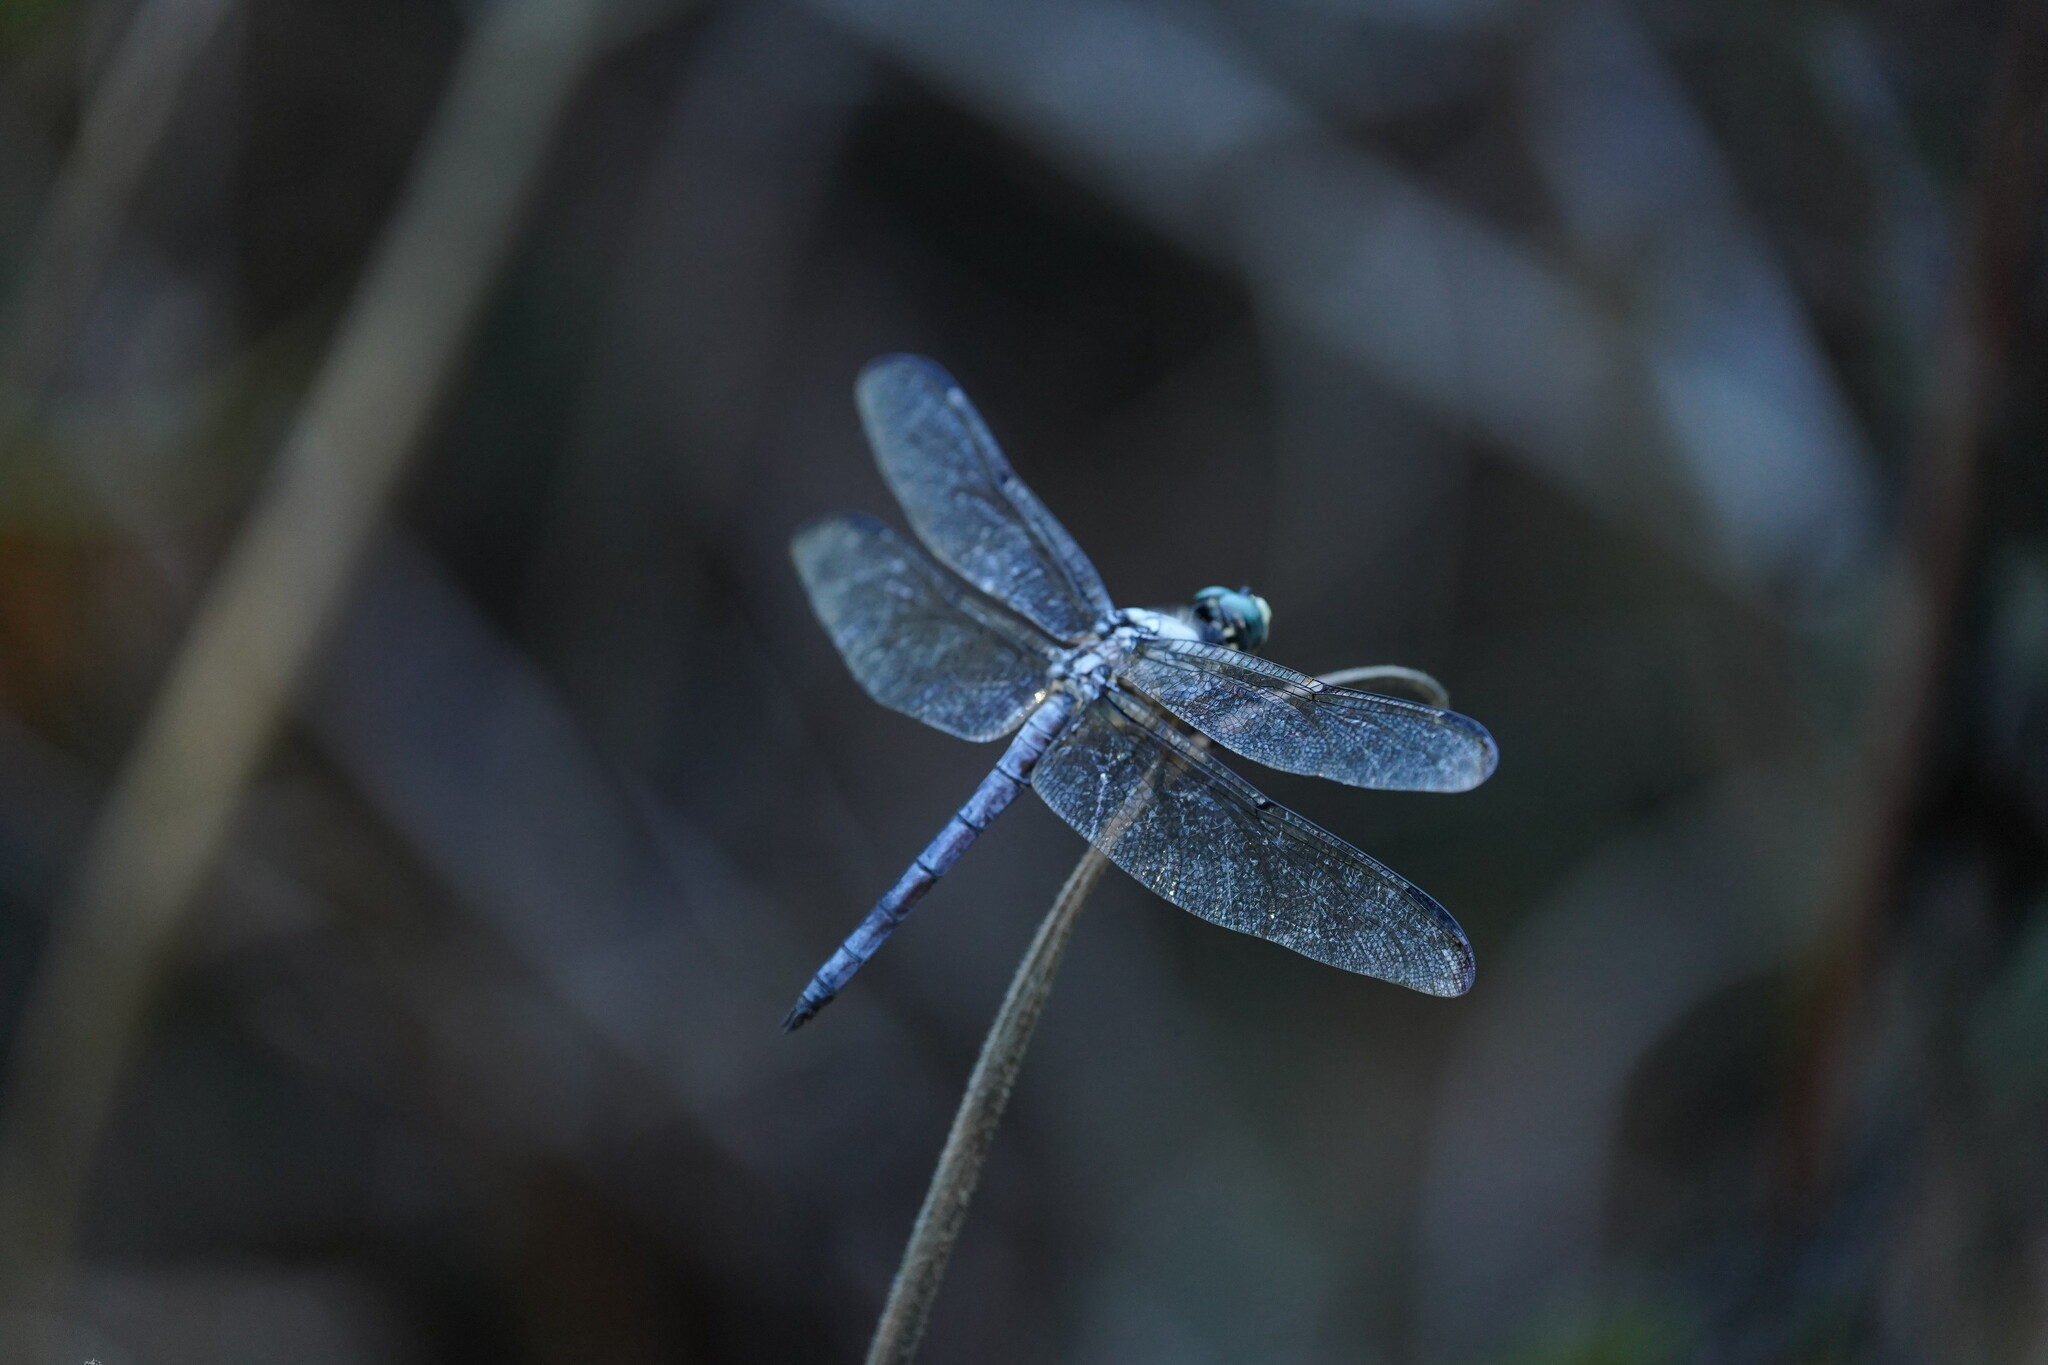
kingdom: Animalia
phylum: Arthropoda
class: Insecta
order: Odonata
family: Libellulidae
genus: Libellula
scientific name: Libellula vibrans
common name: Great blue skimmer
